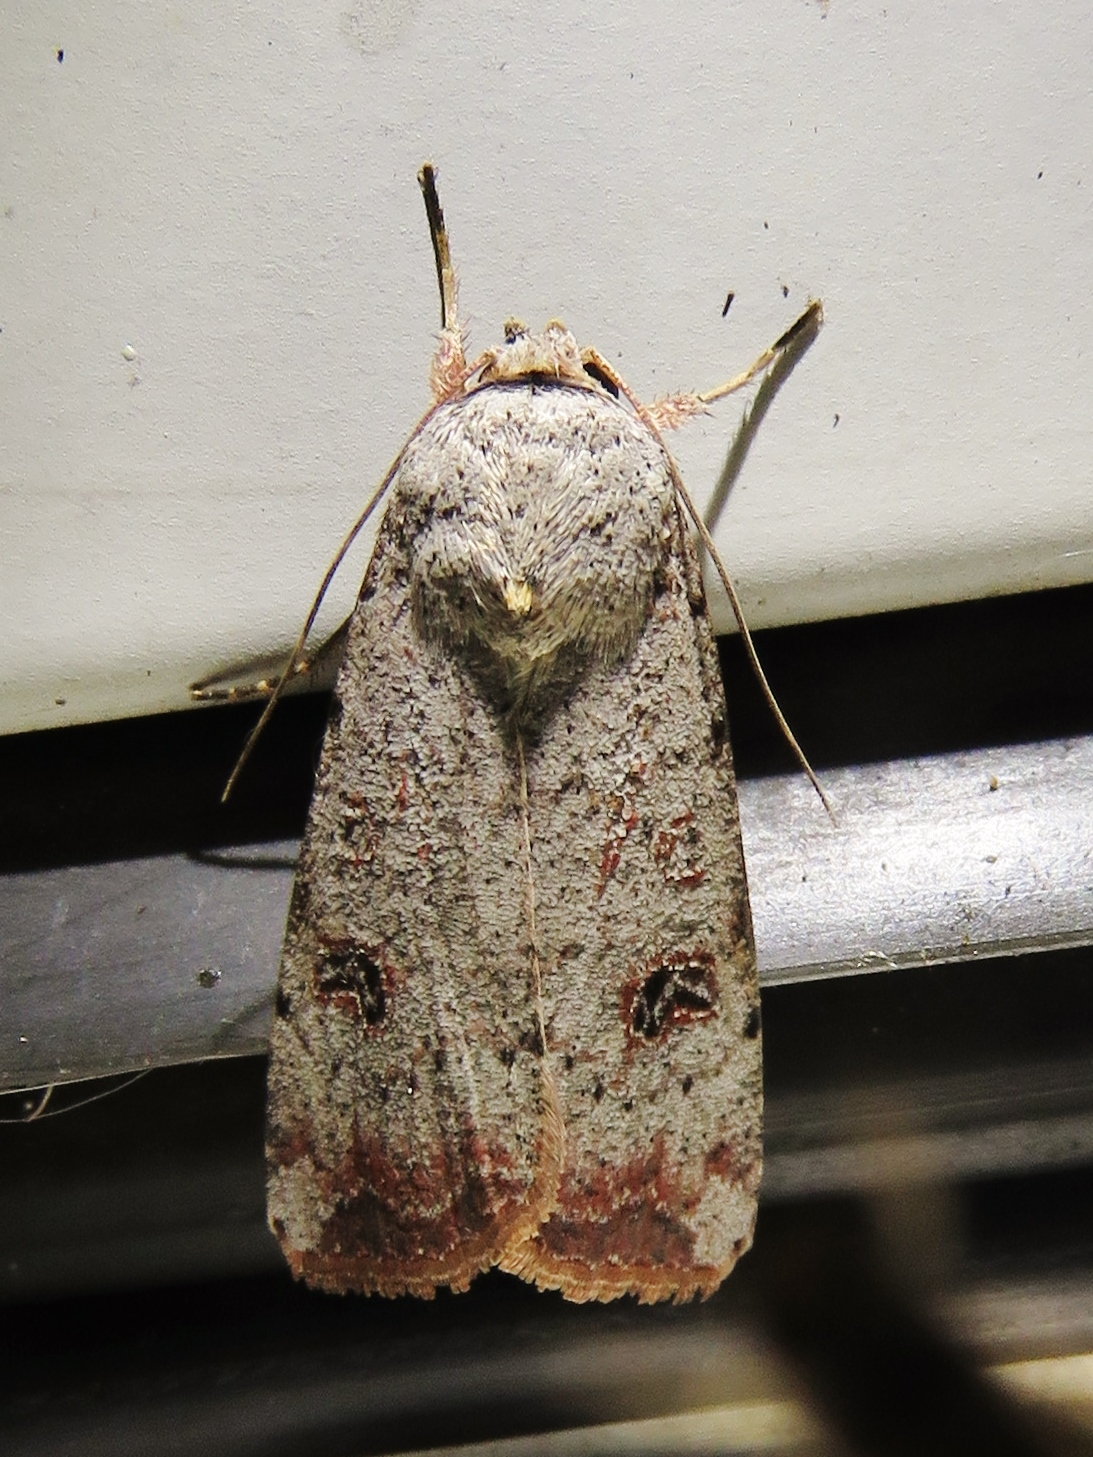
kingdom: Animalia
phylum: Arthropoda
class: Insecta
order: Lepidoptera
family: Noctuidae
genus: Anicla
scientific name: Anicla infecta
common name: Green cutworm
